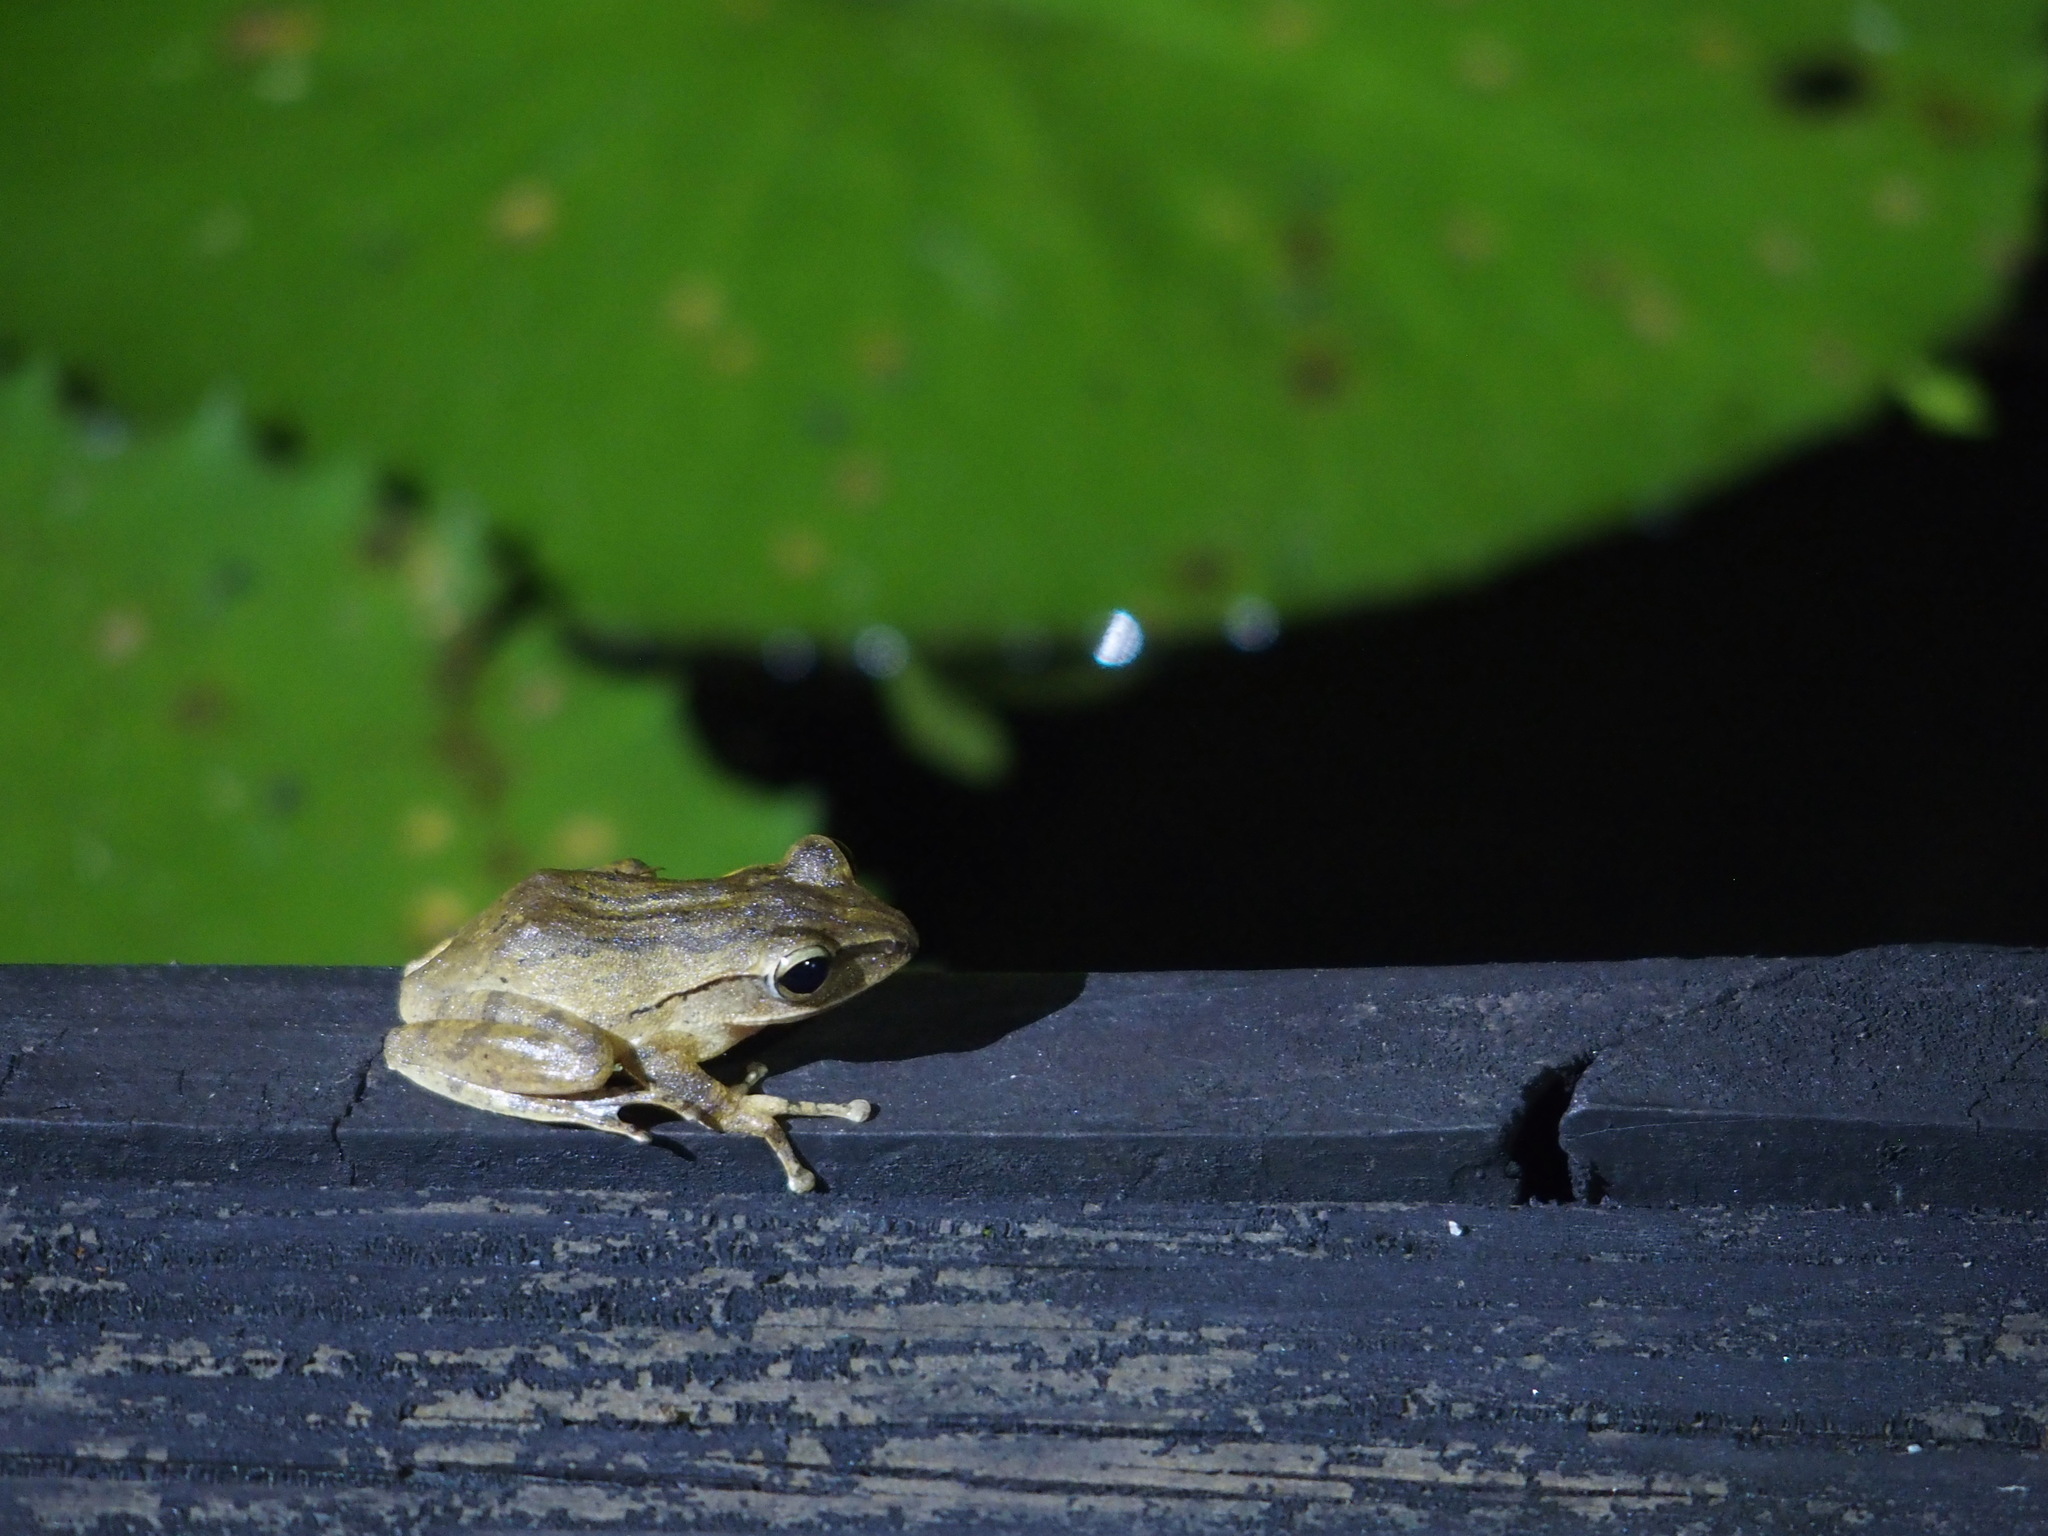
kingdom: Animalia
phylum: Chordata
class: Amphibia
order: Anura
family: Rhacophoridae
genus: Polypedates
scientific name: Polypedates braueri
